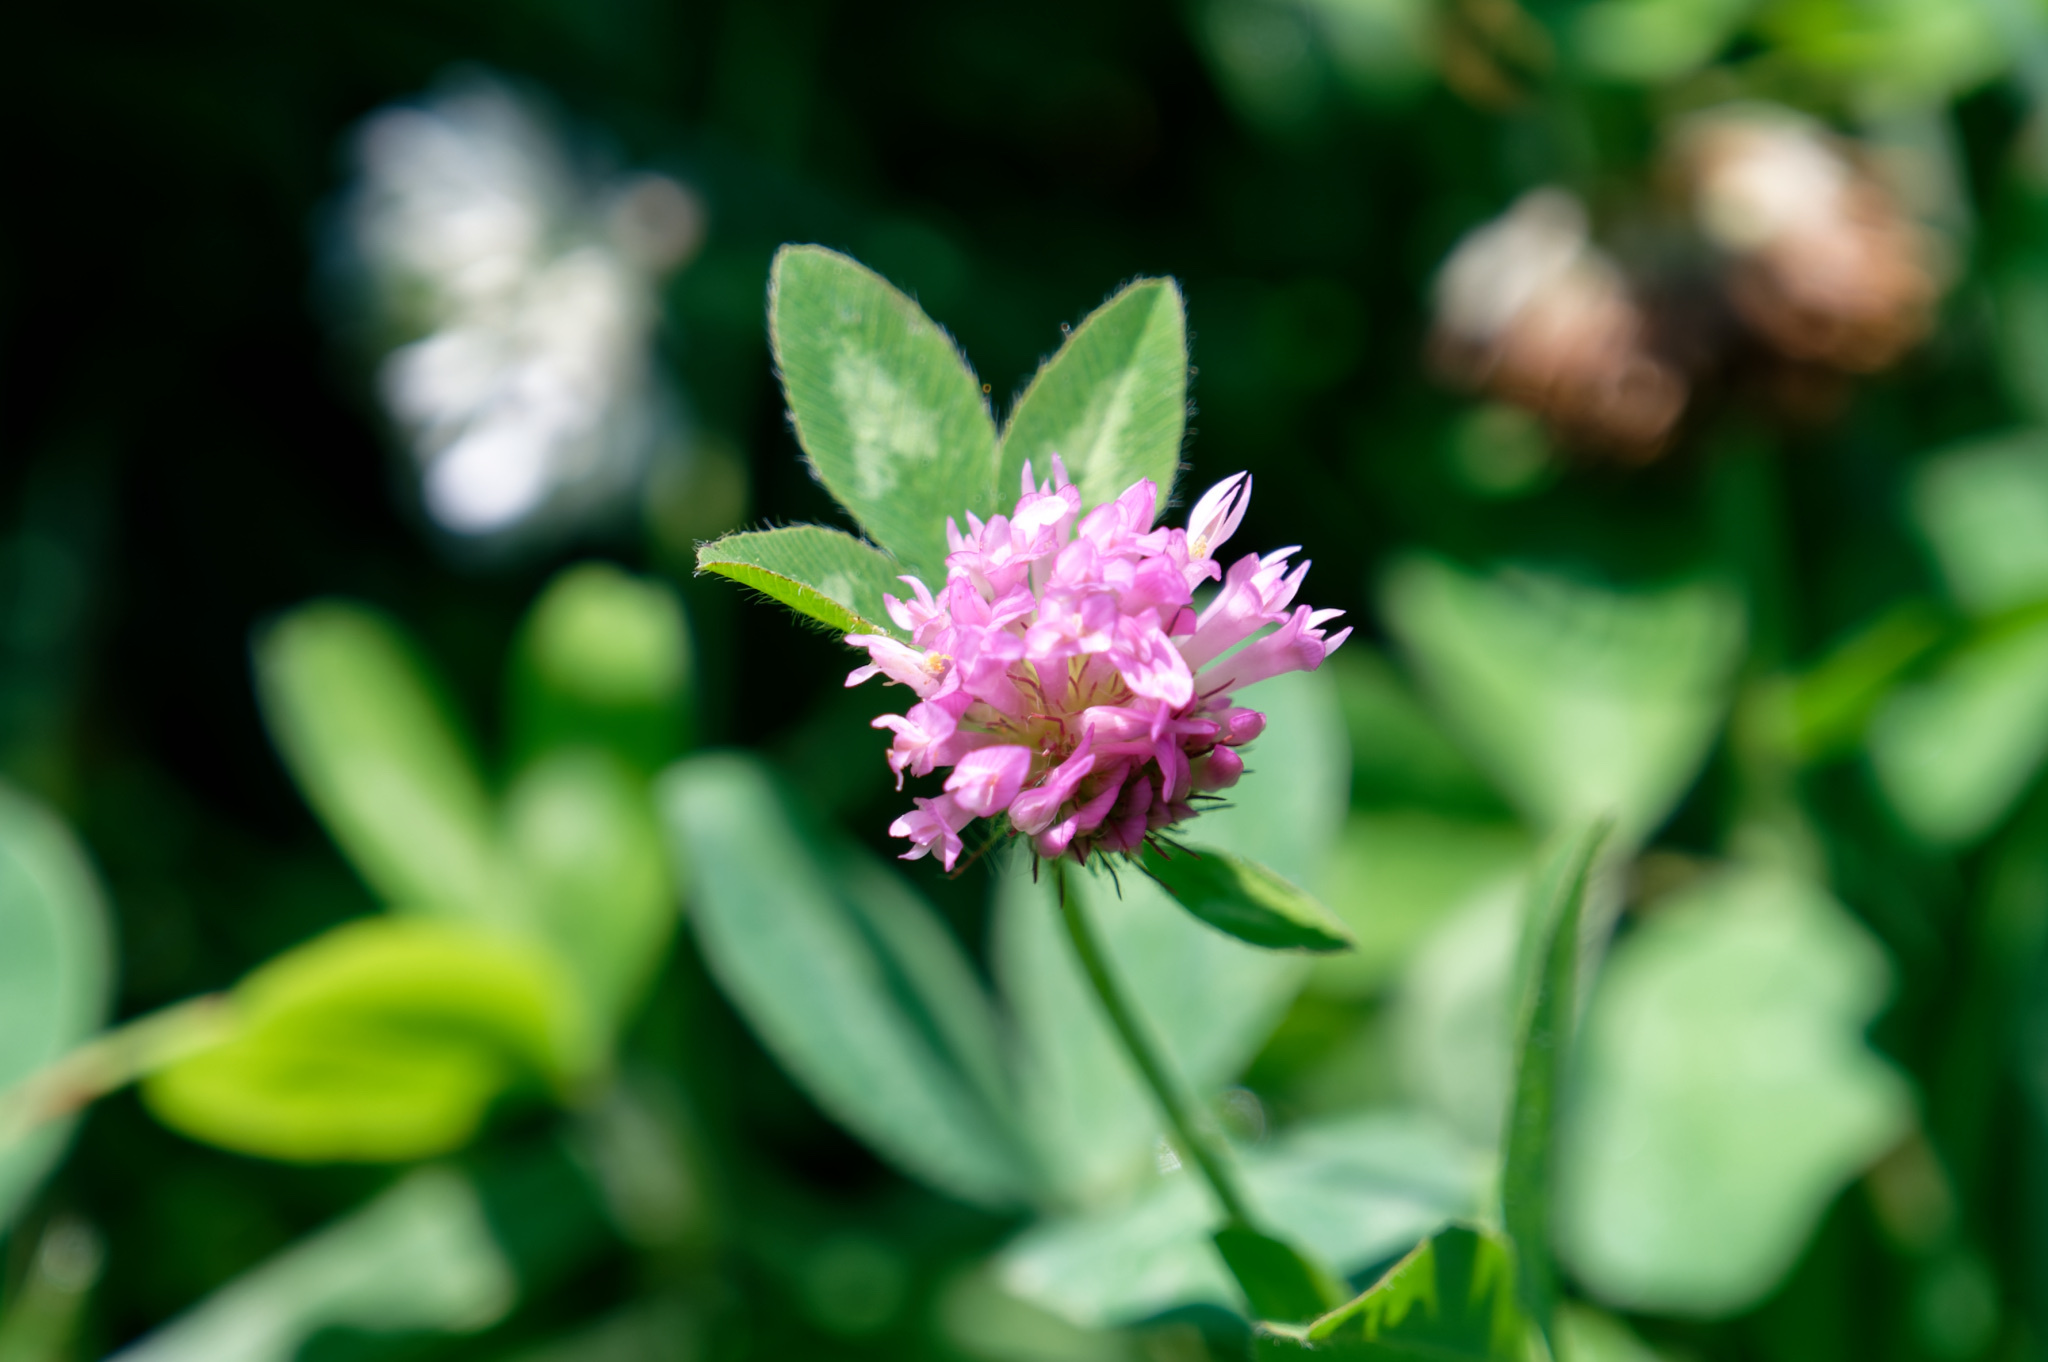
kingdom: Plantae
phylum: Tracheophyta
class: Magnoliopsida
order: Fabales
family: Fabaceae
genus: Trifolium
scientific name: Trifolium pratense
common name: Red clover
